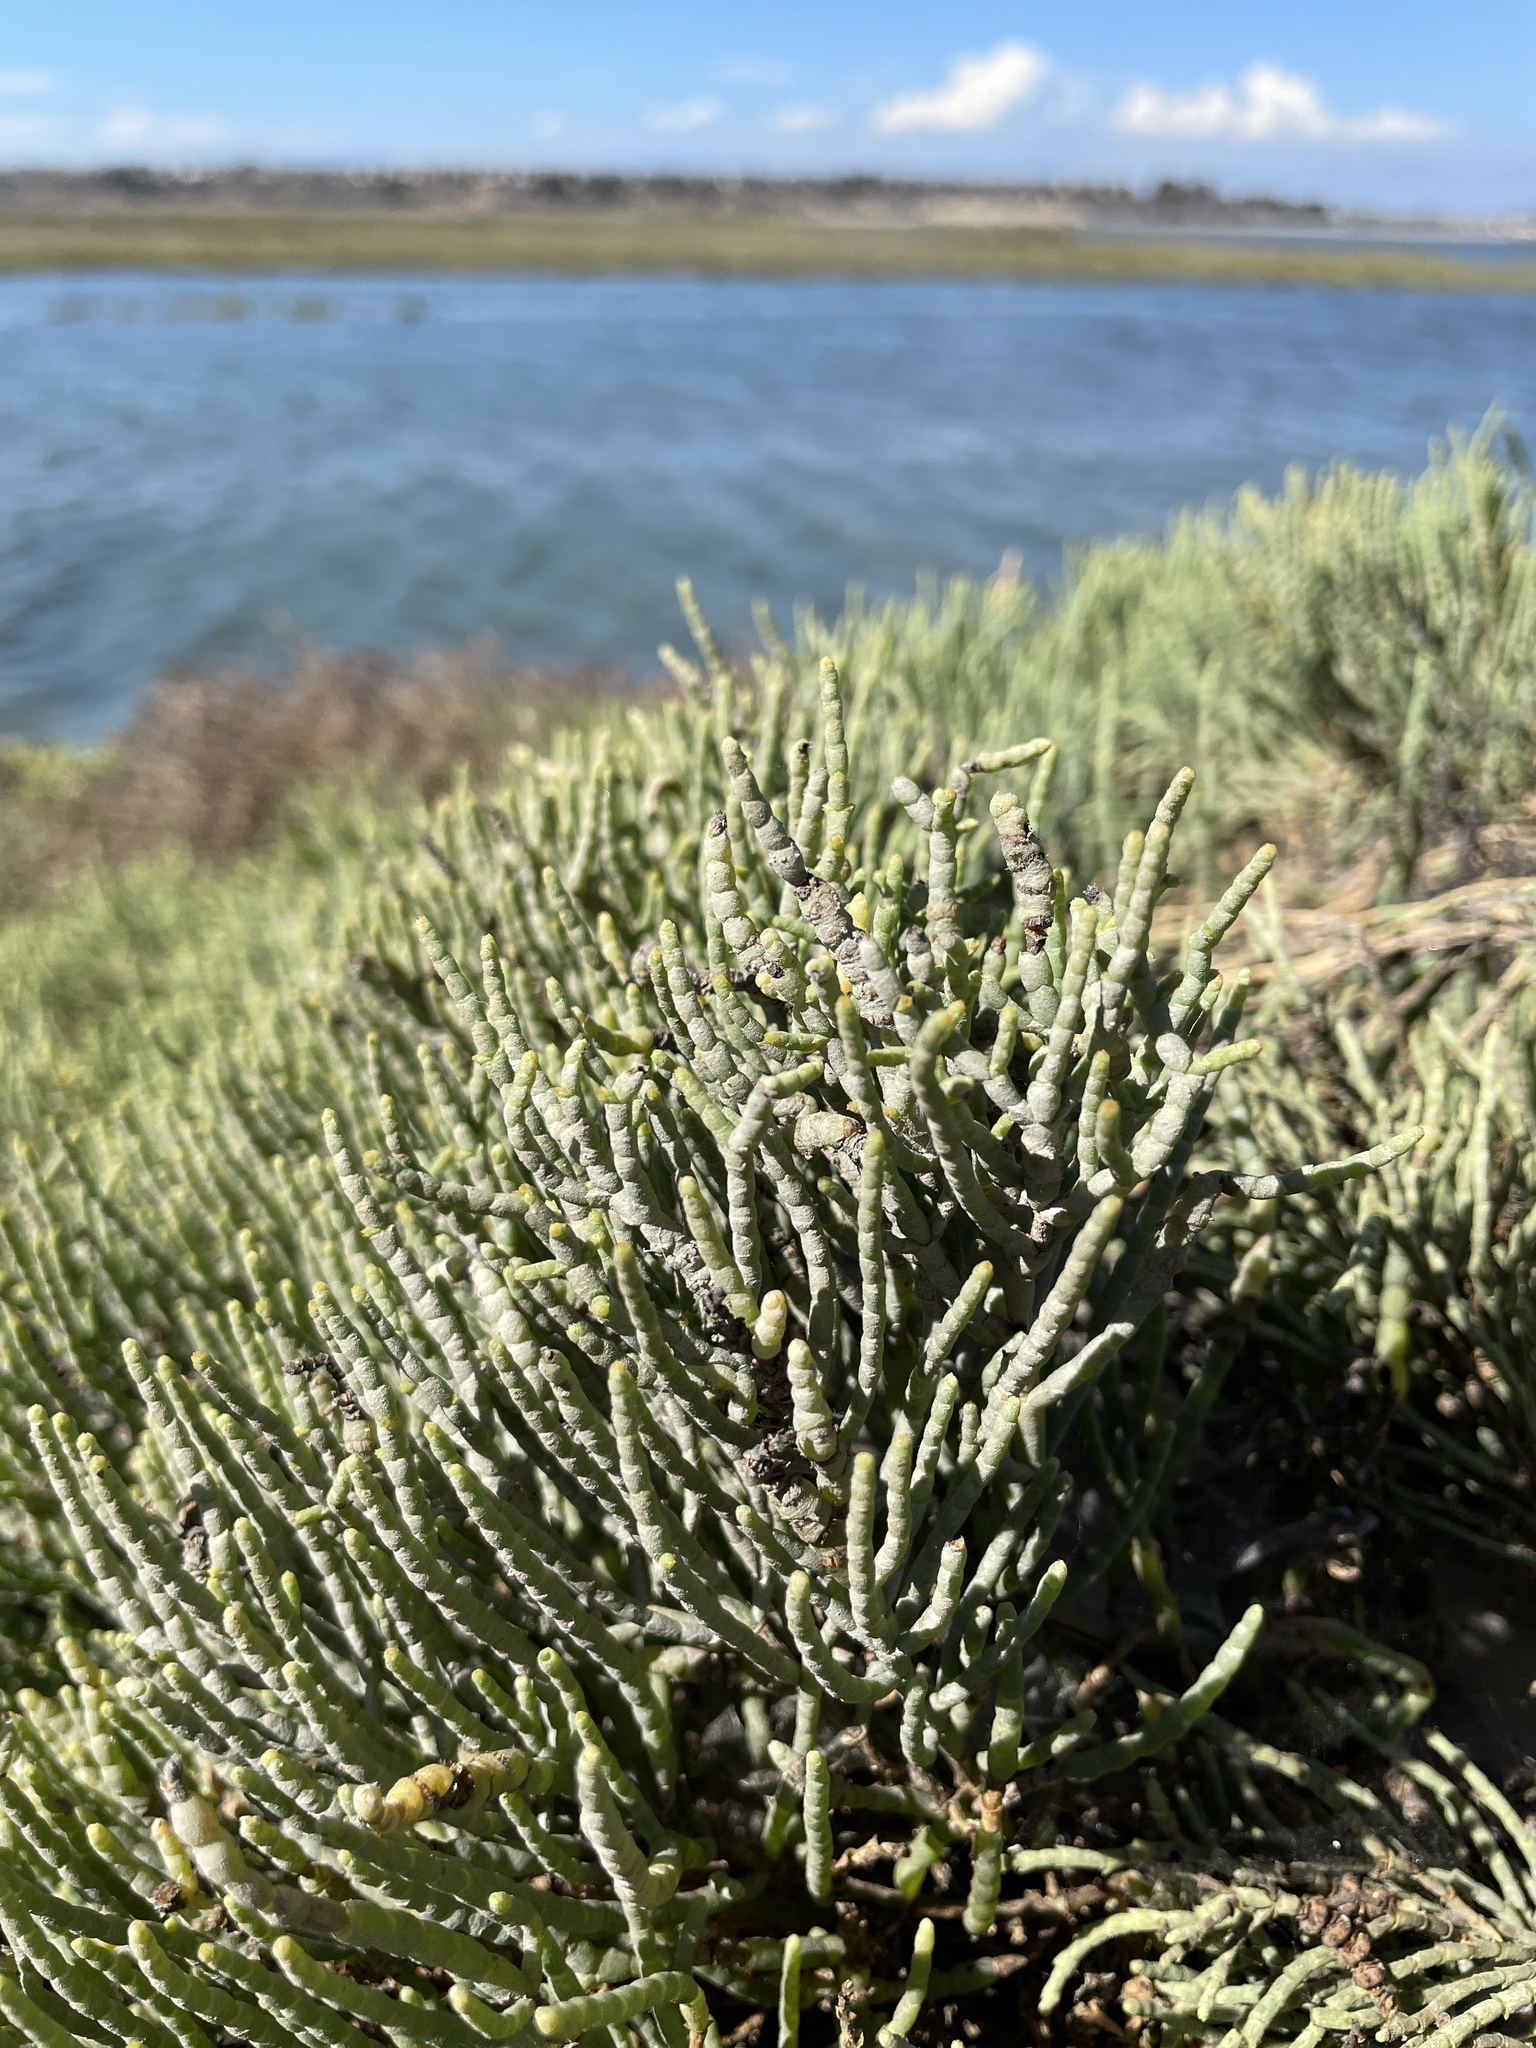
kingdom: Plantae
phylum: Tracheophyta
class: Magnoliopsida
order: Caryophyllales
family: Amaranthaceae
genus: Arthroceras
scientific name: Arthroceras subterminale
